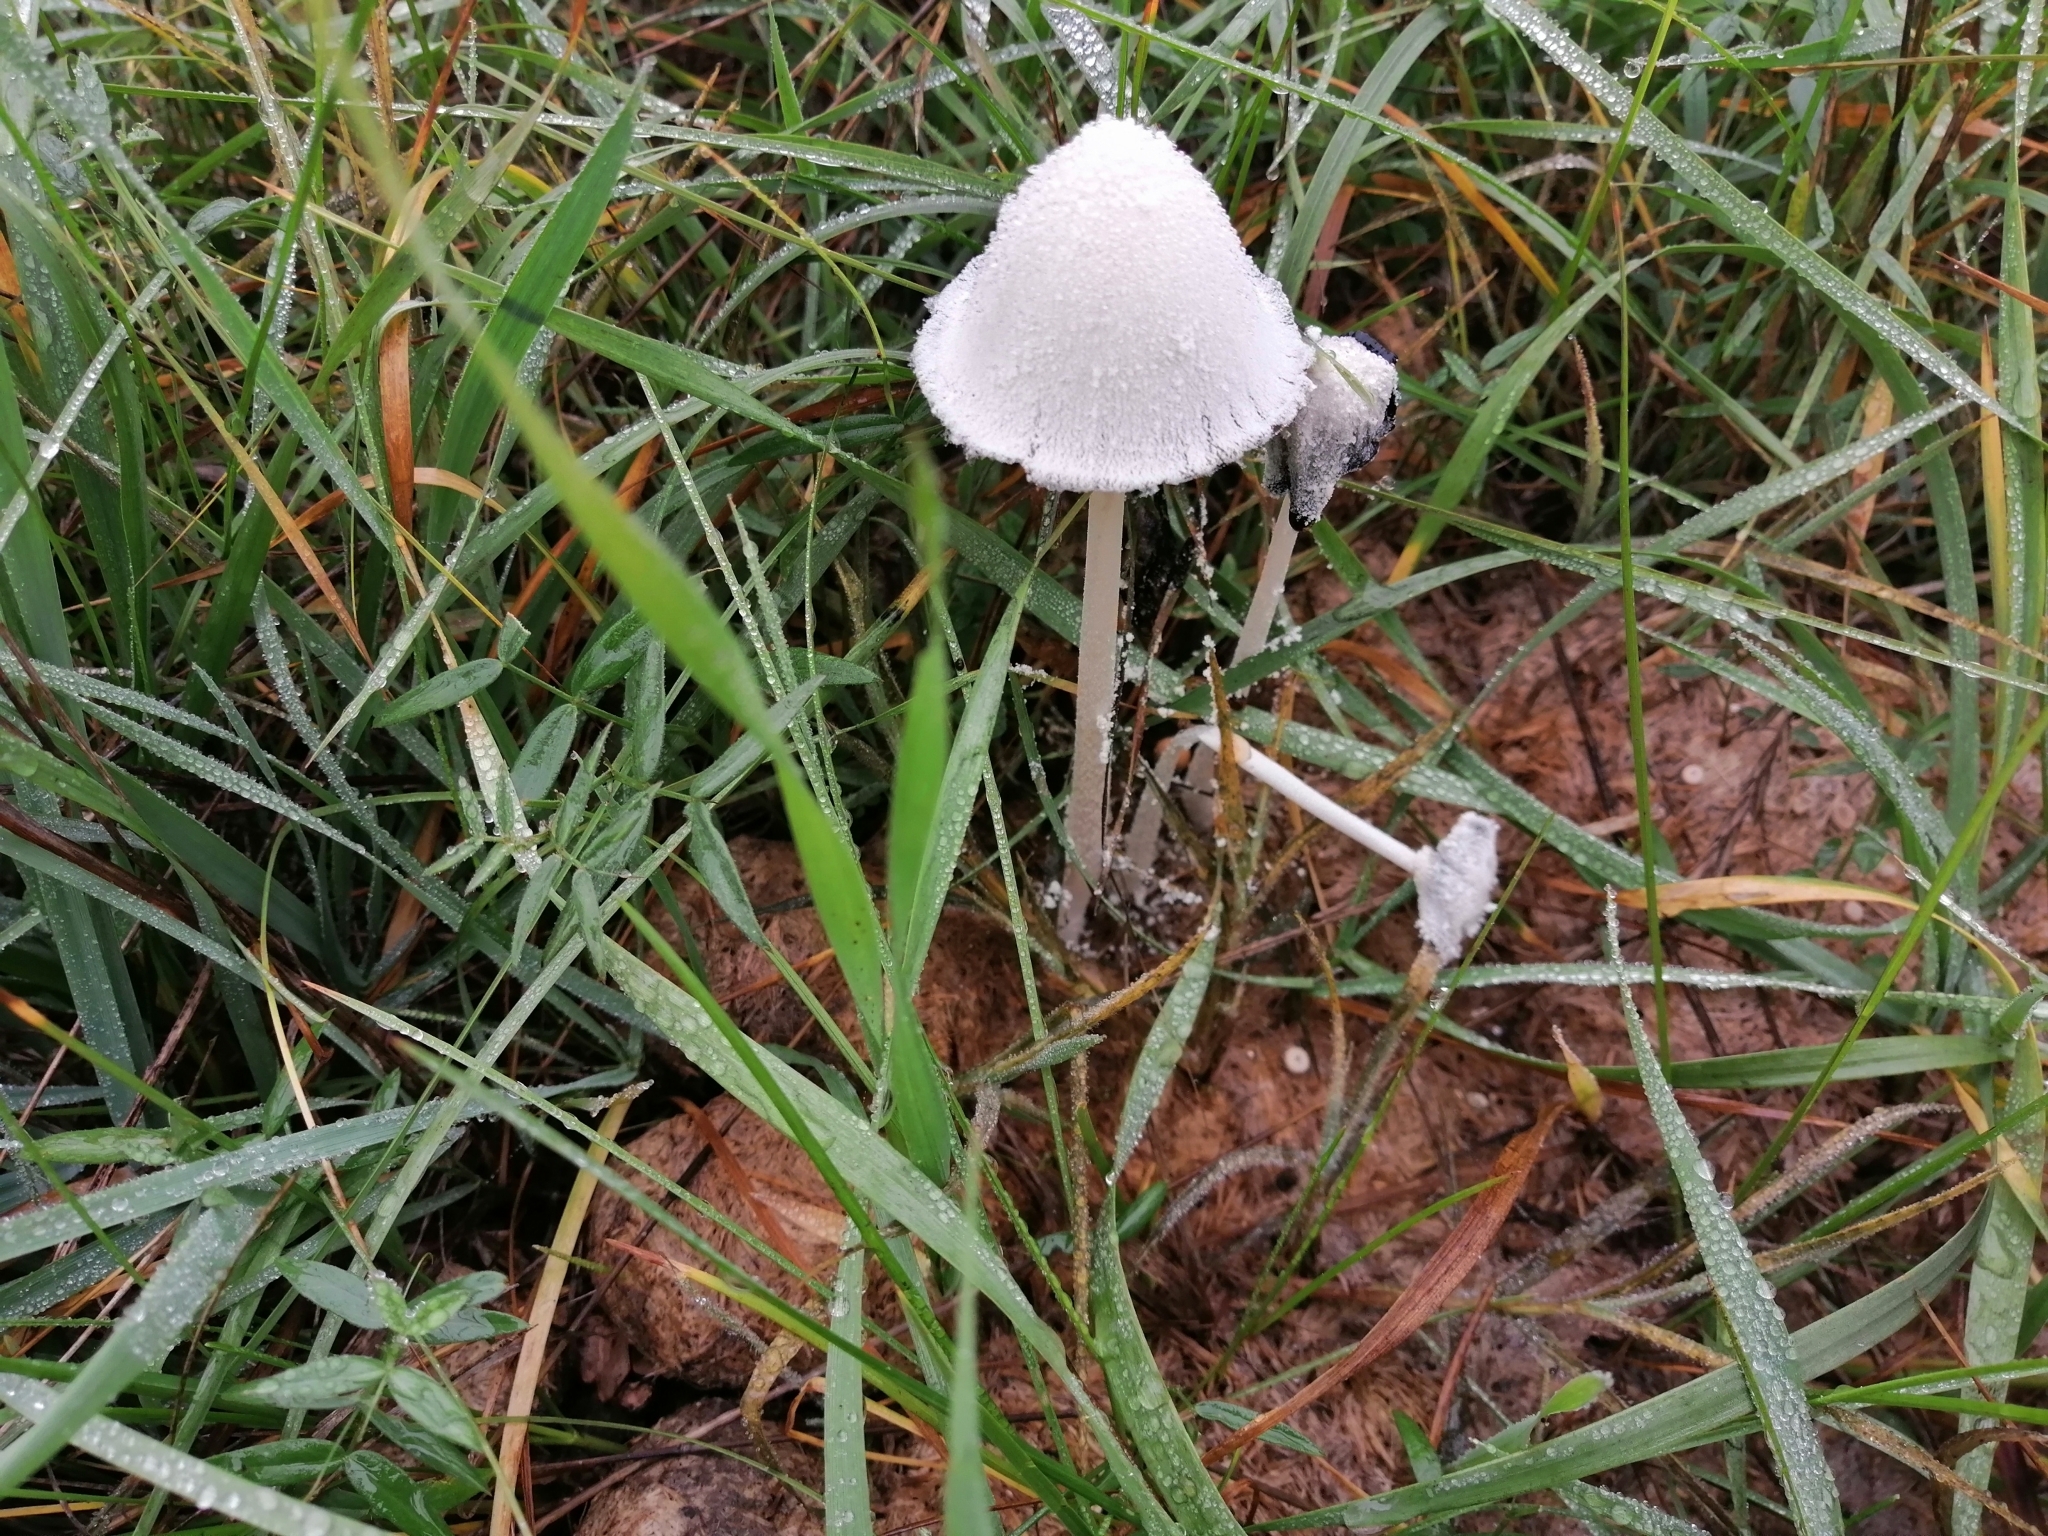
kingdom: Fungi
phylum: Basidiomycota
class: Agaricomycetes
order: Agaricales
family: Psathyrellaceae
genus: Coprinopsis
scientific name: Coprinopsis nivea
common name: Snowy inkcap
